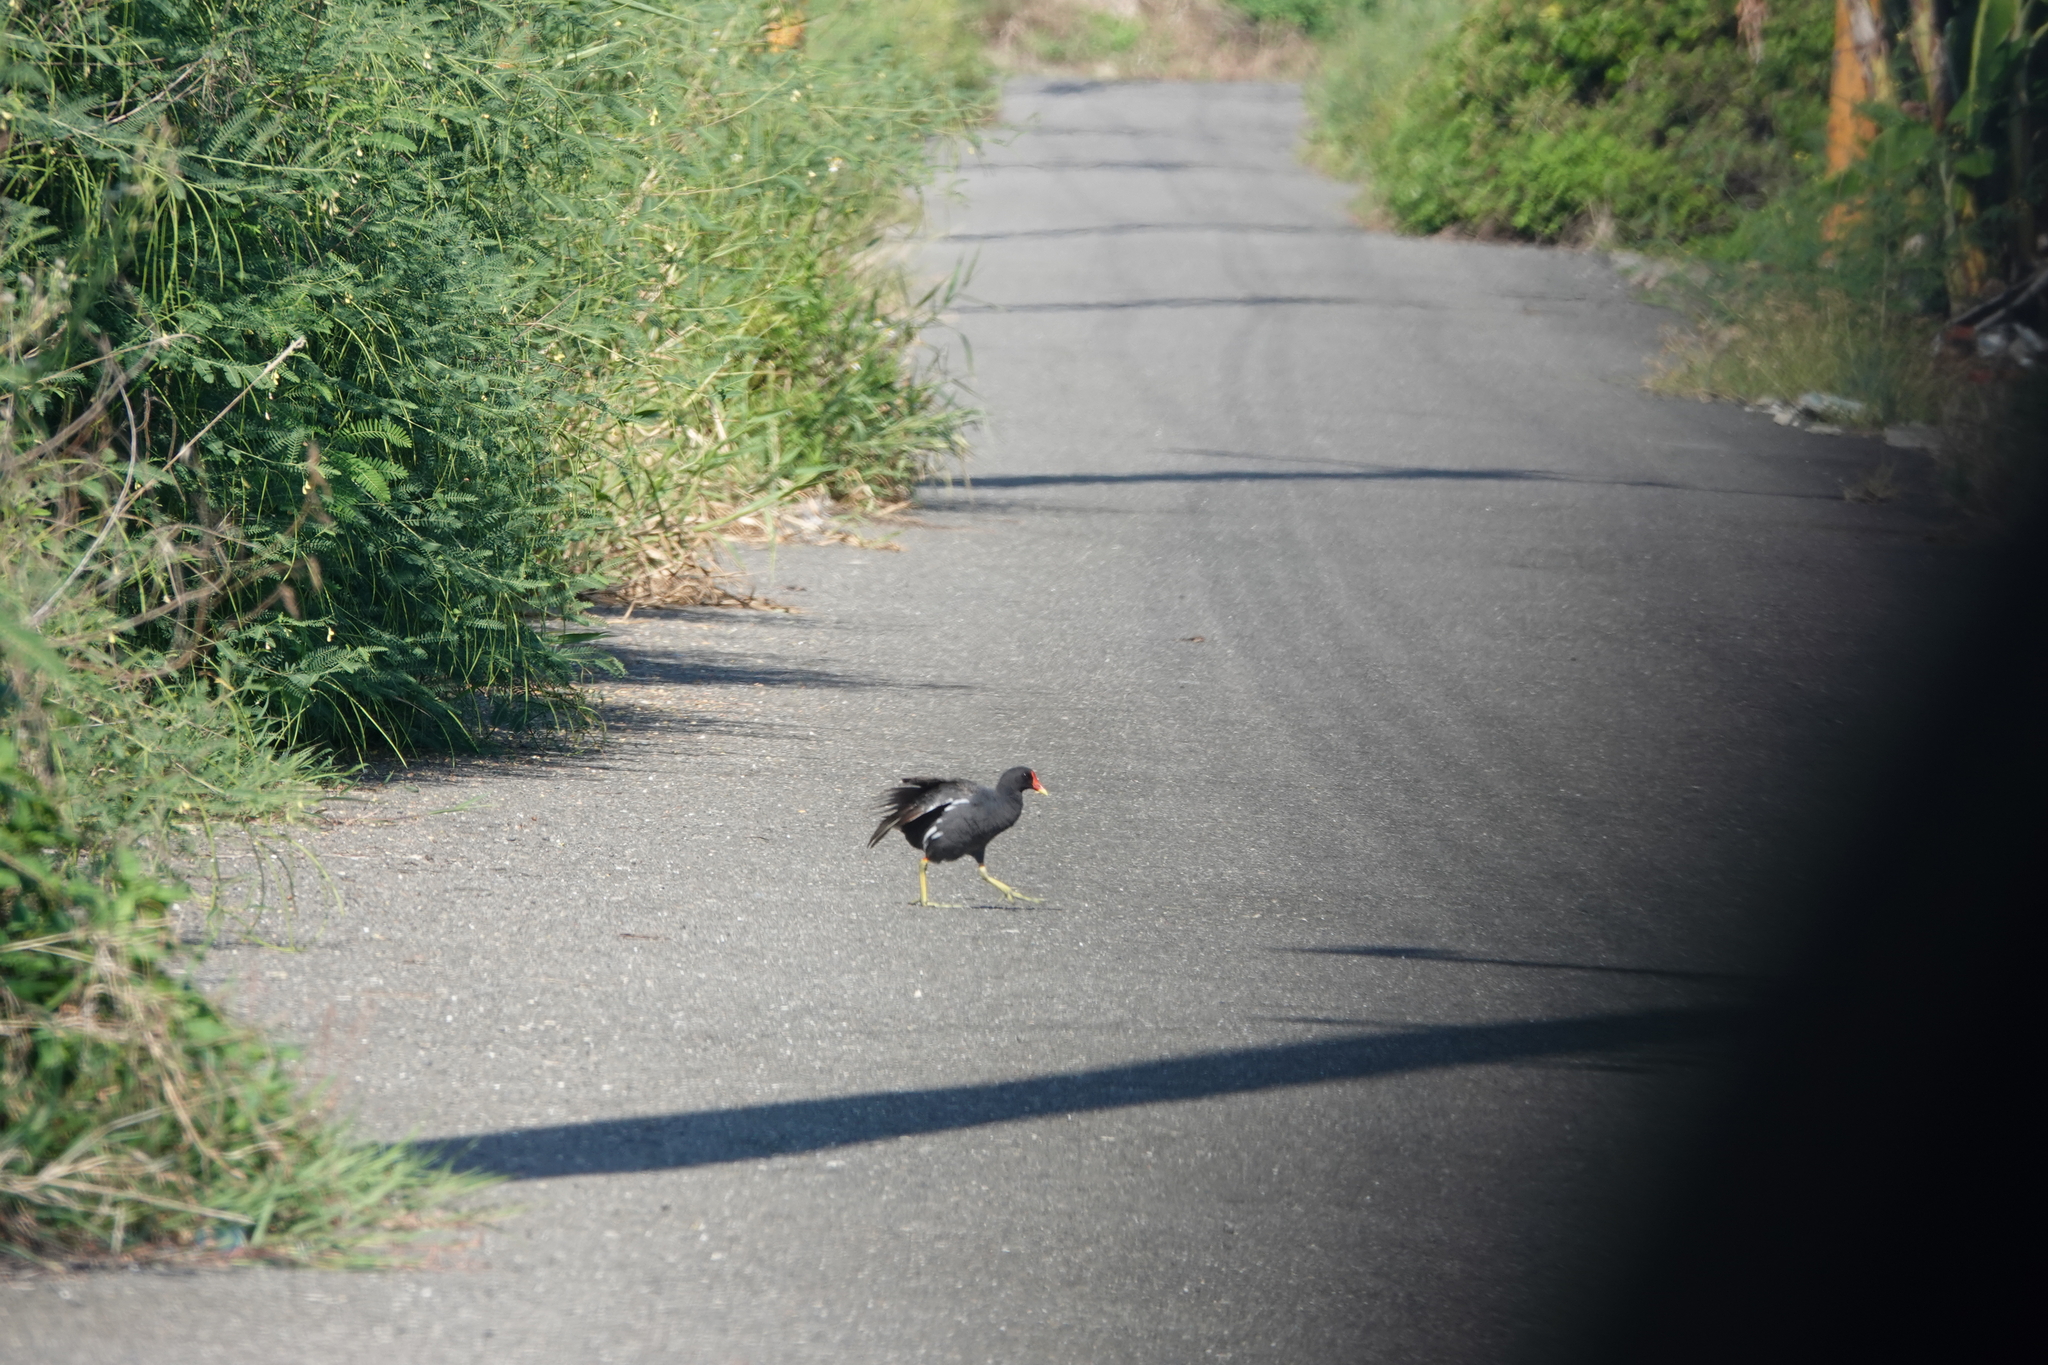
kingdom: Animalia
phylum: Chordata
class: Aves
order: Gruiformes
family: Rallidae
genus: Gallinula
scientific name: Gallinula chloropus
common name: Common moorhen
